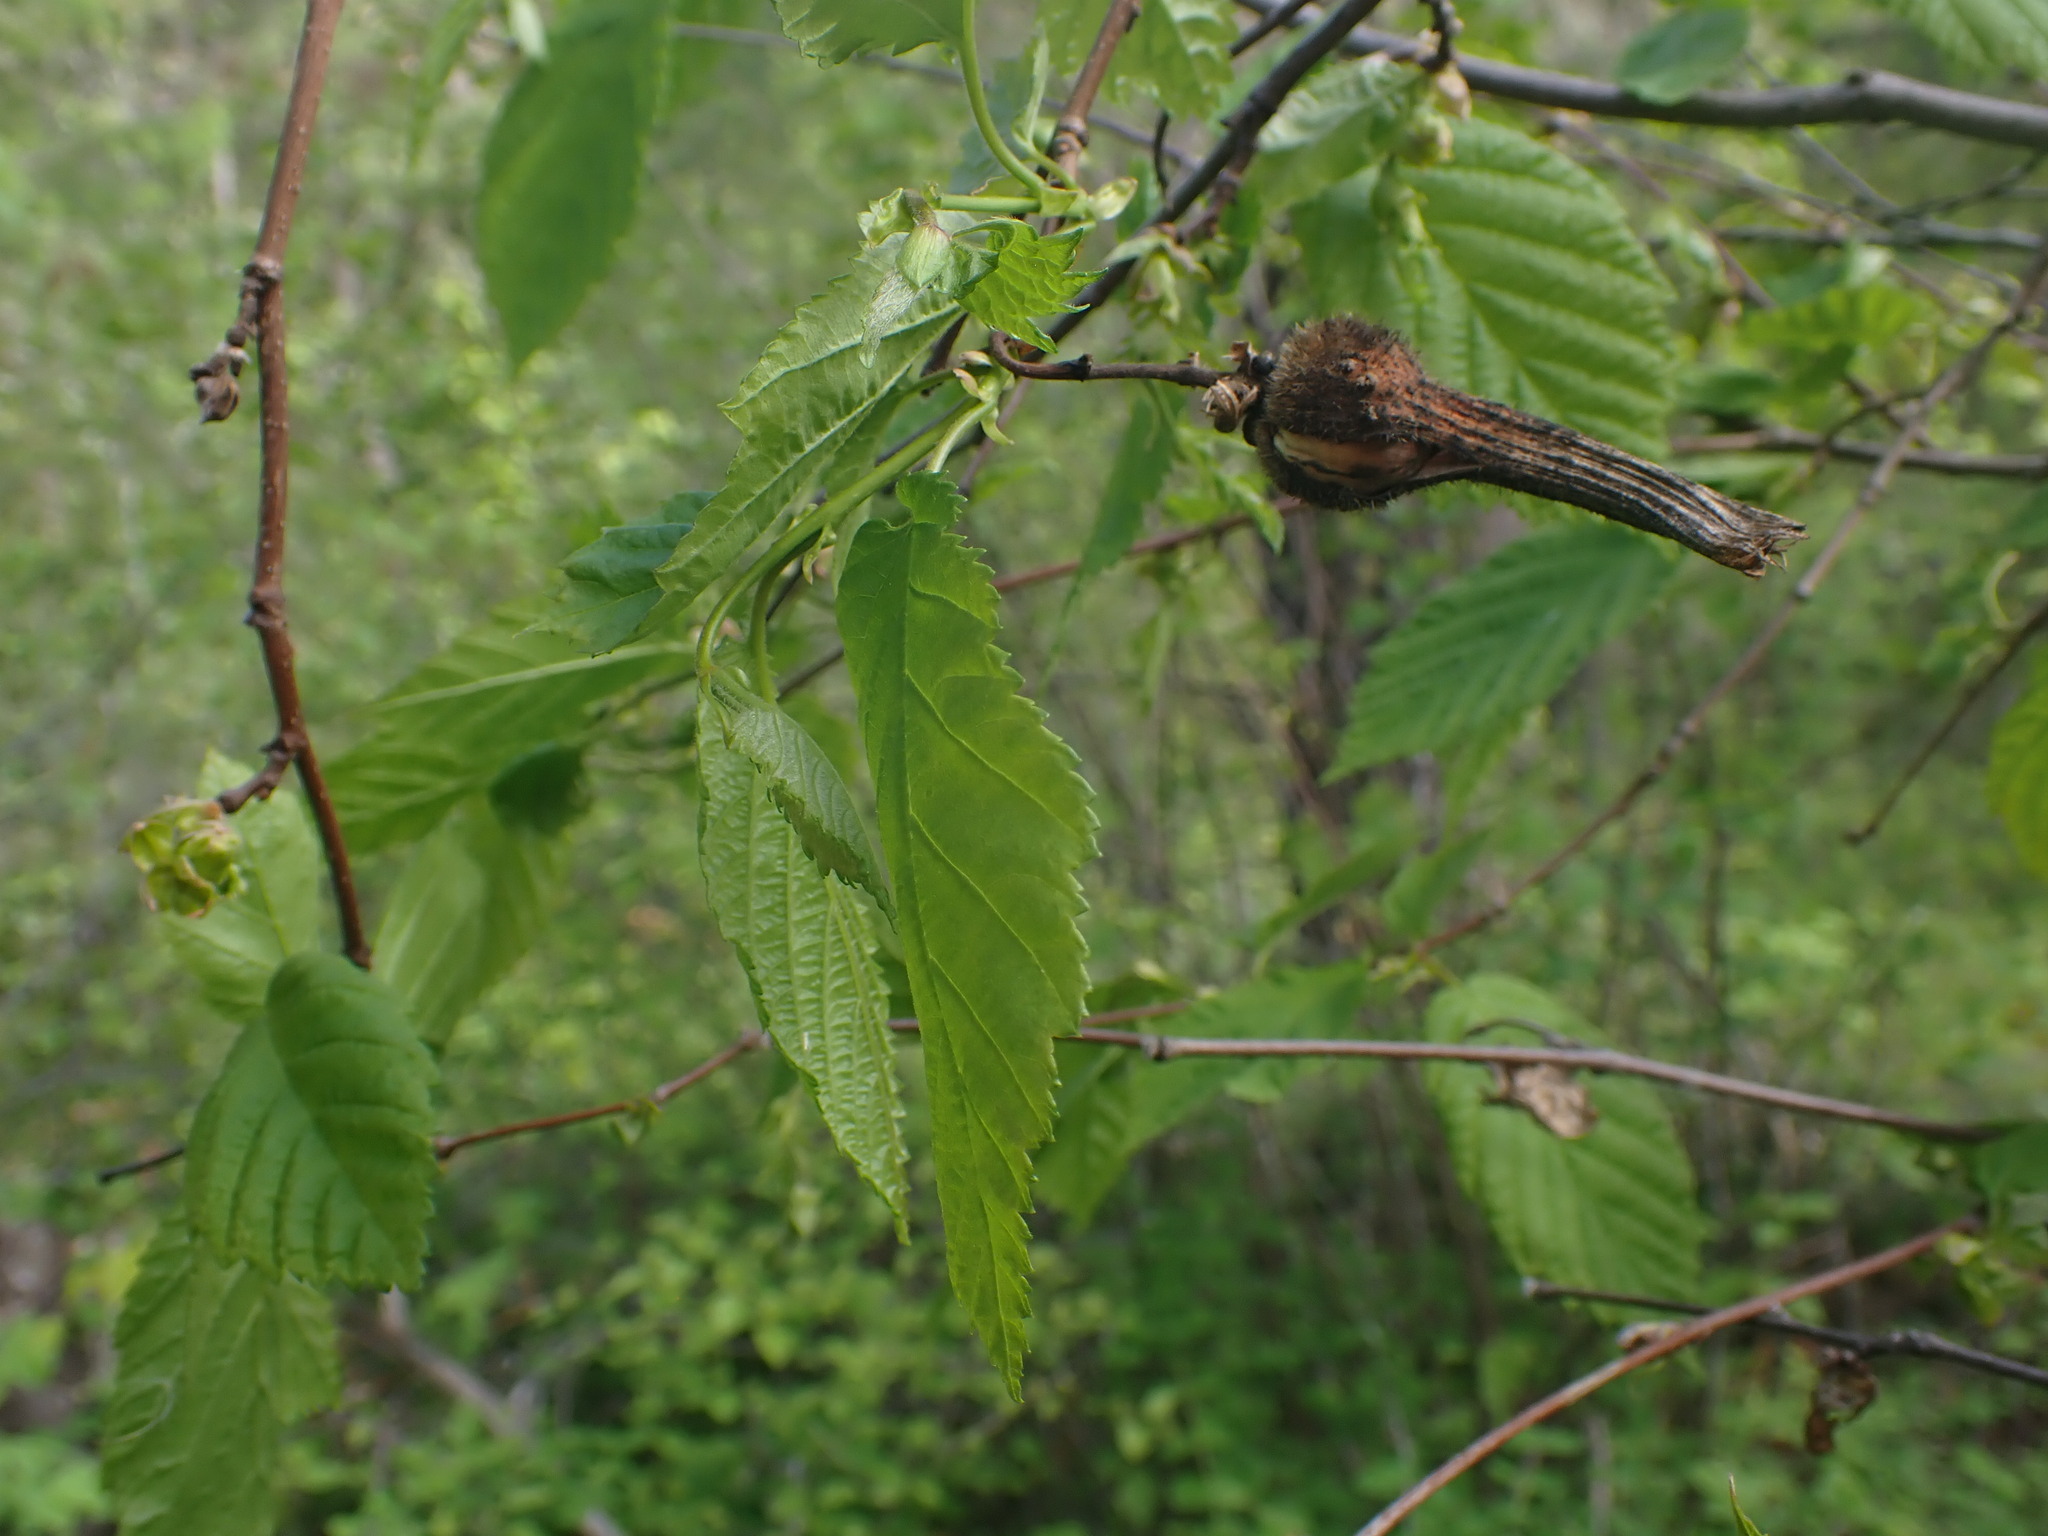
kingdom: Plantae
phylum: Tracheophyta
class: Magnoliopsida
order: Fagales
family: Betulaceae
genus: Corylus
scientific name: Corylus cornuta
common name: Beaked hazel
